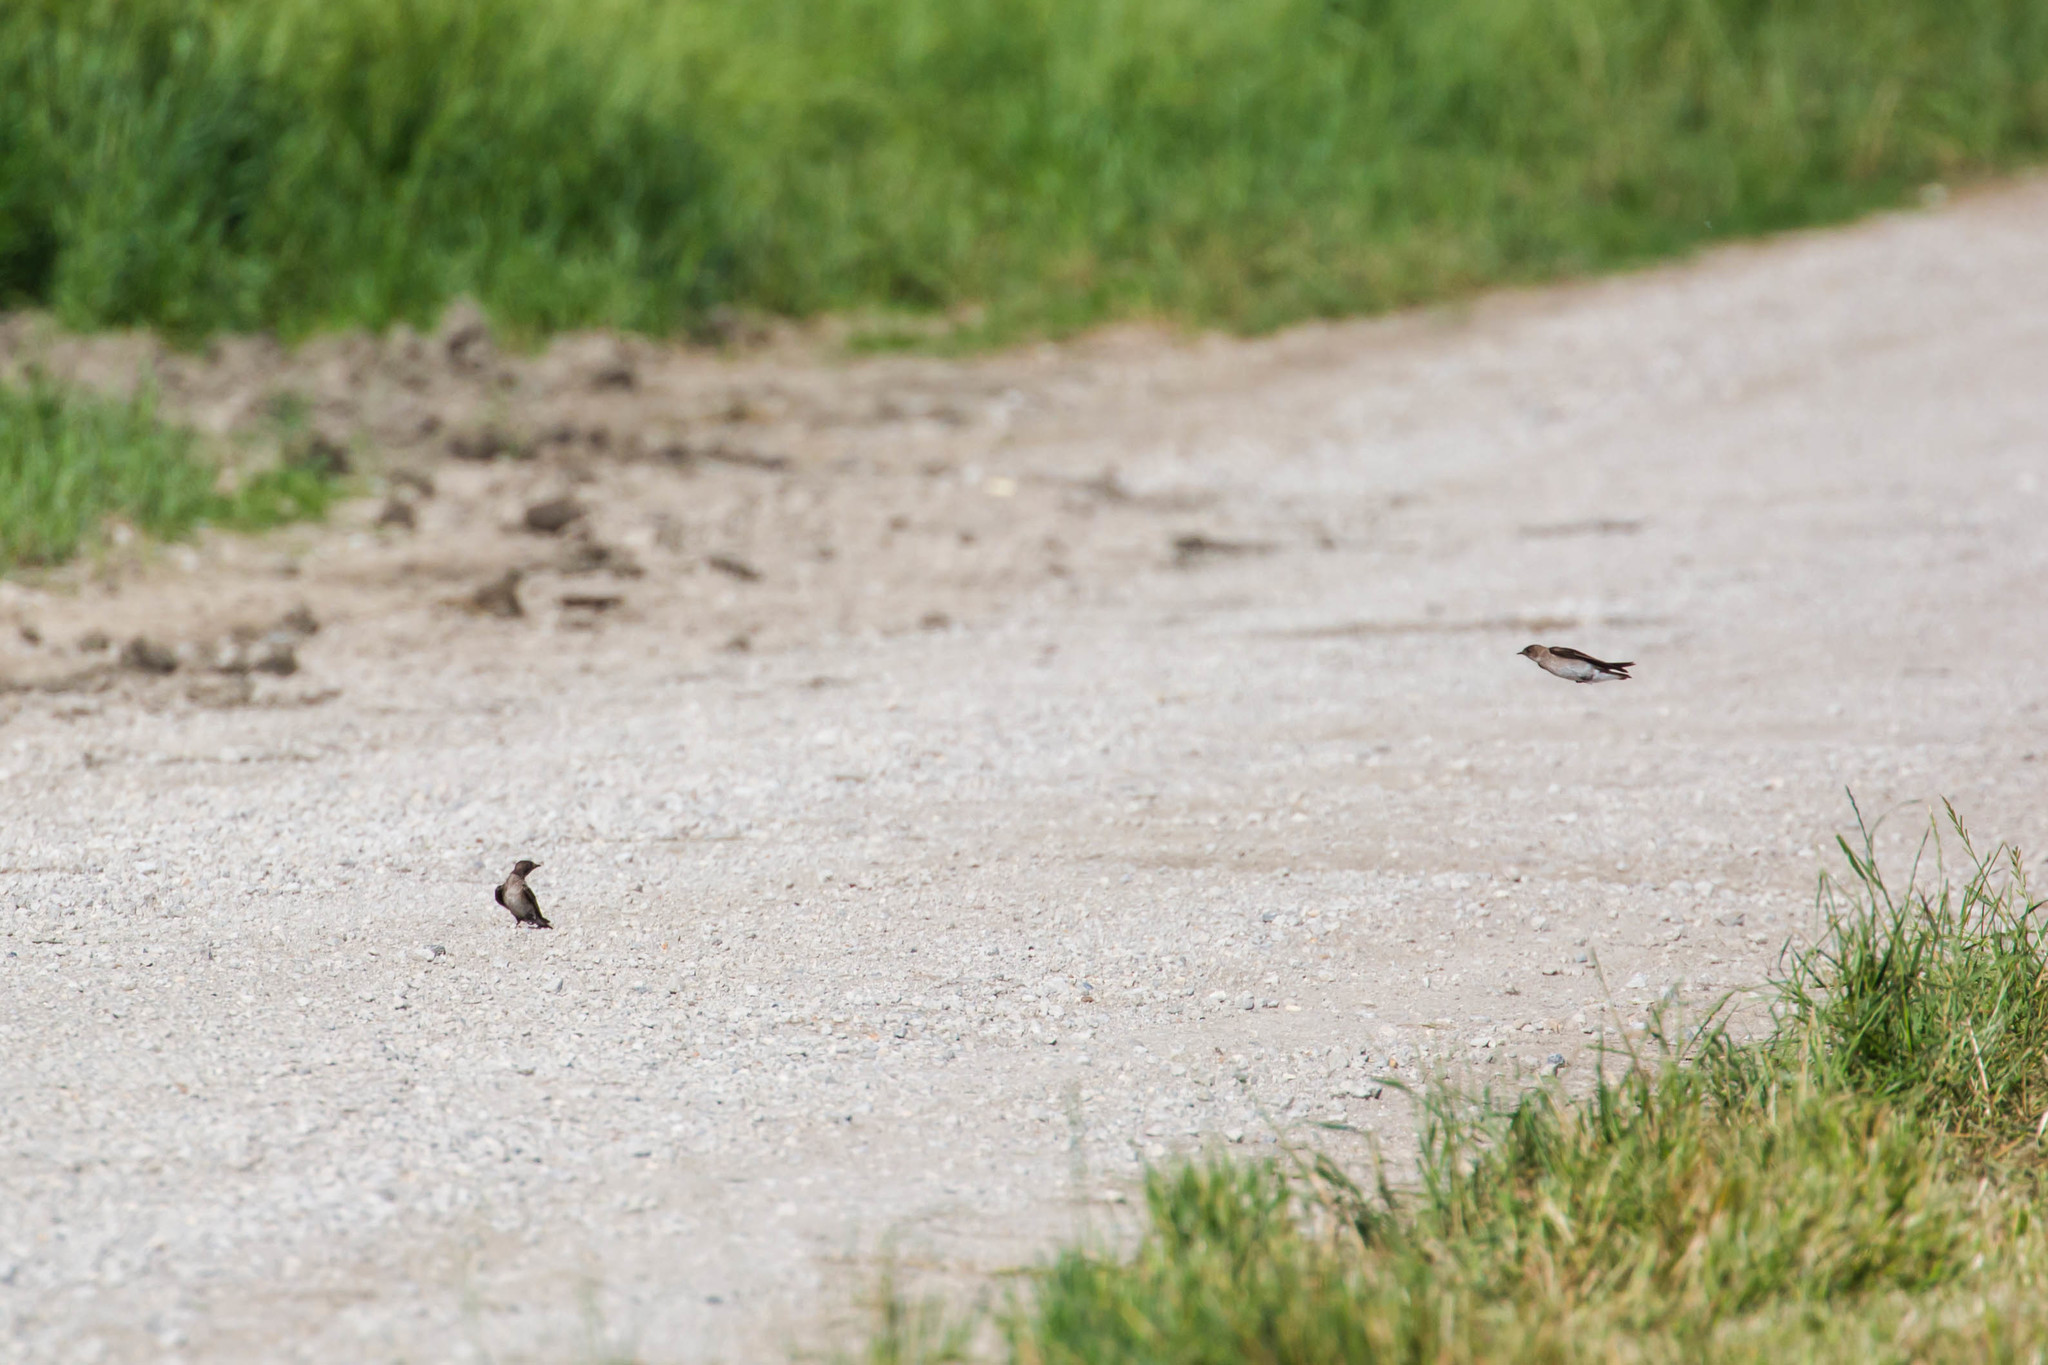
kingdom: Animalia
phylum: Chordata
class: Aves
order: Passeriformes
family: Hirundinidae
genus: Stelgidopteryx
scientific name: Stelgidopteryx serripennis
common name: Northern rough-winged swallow
